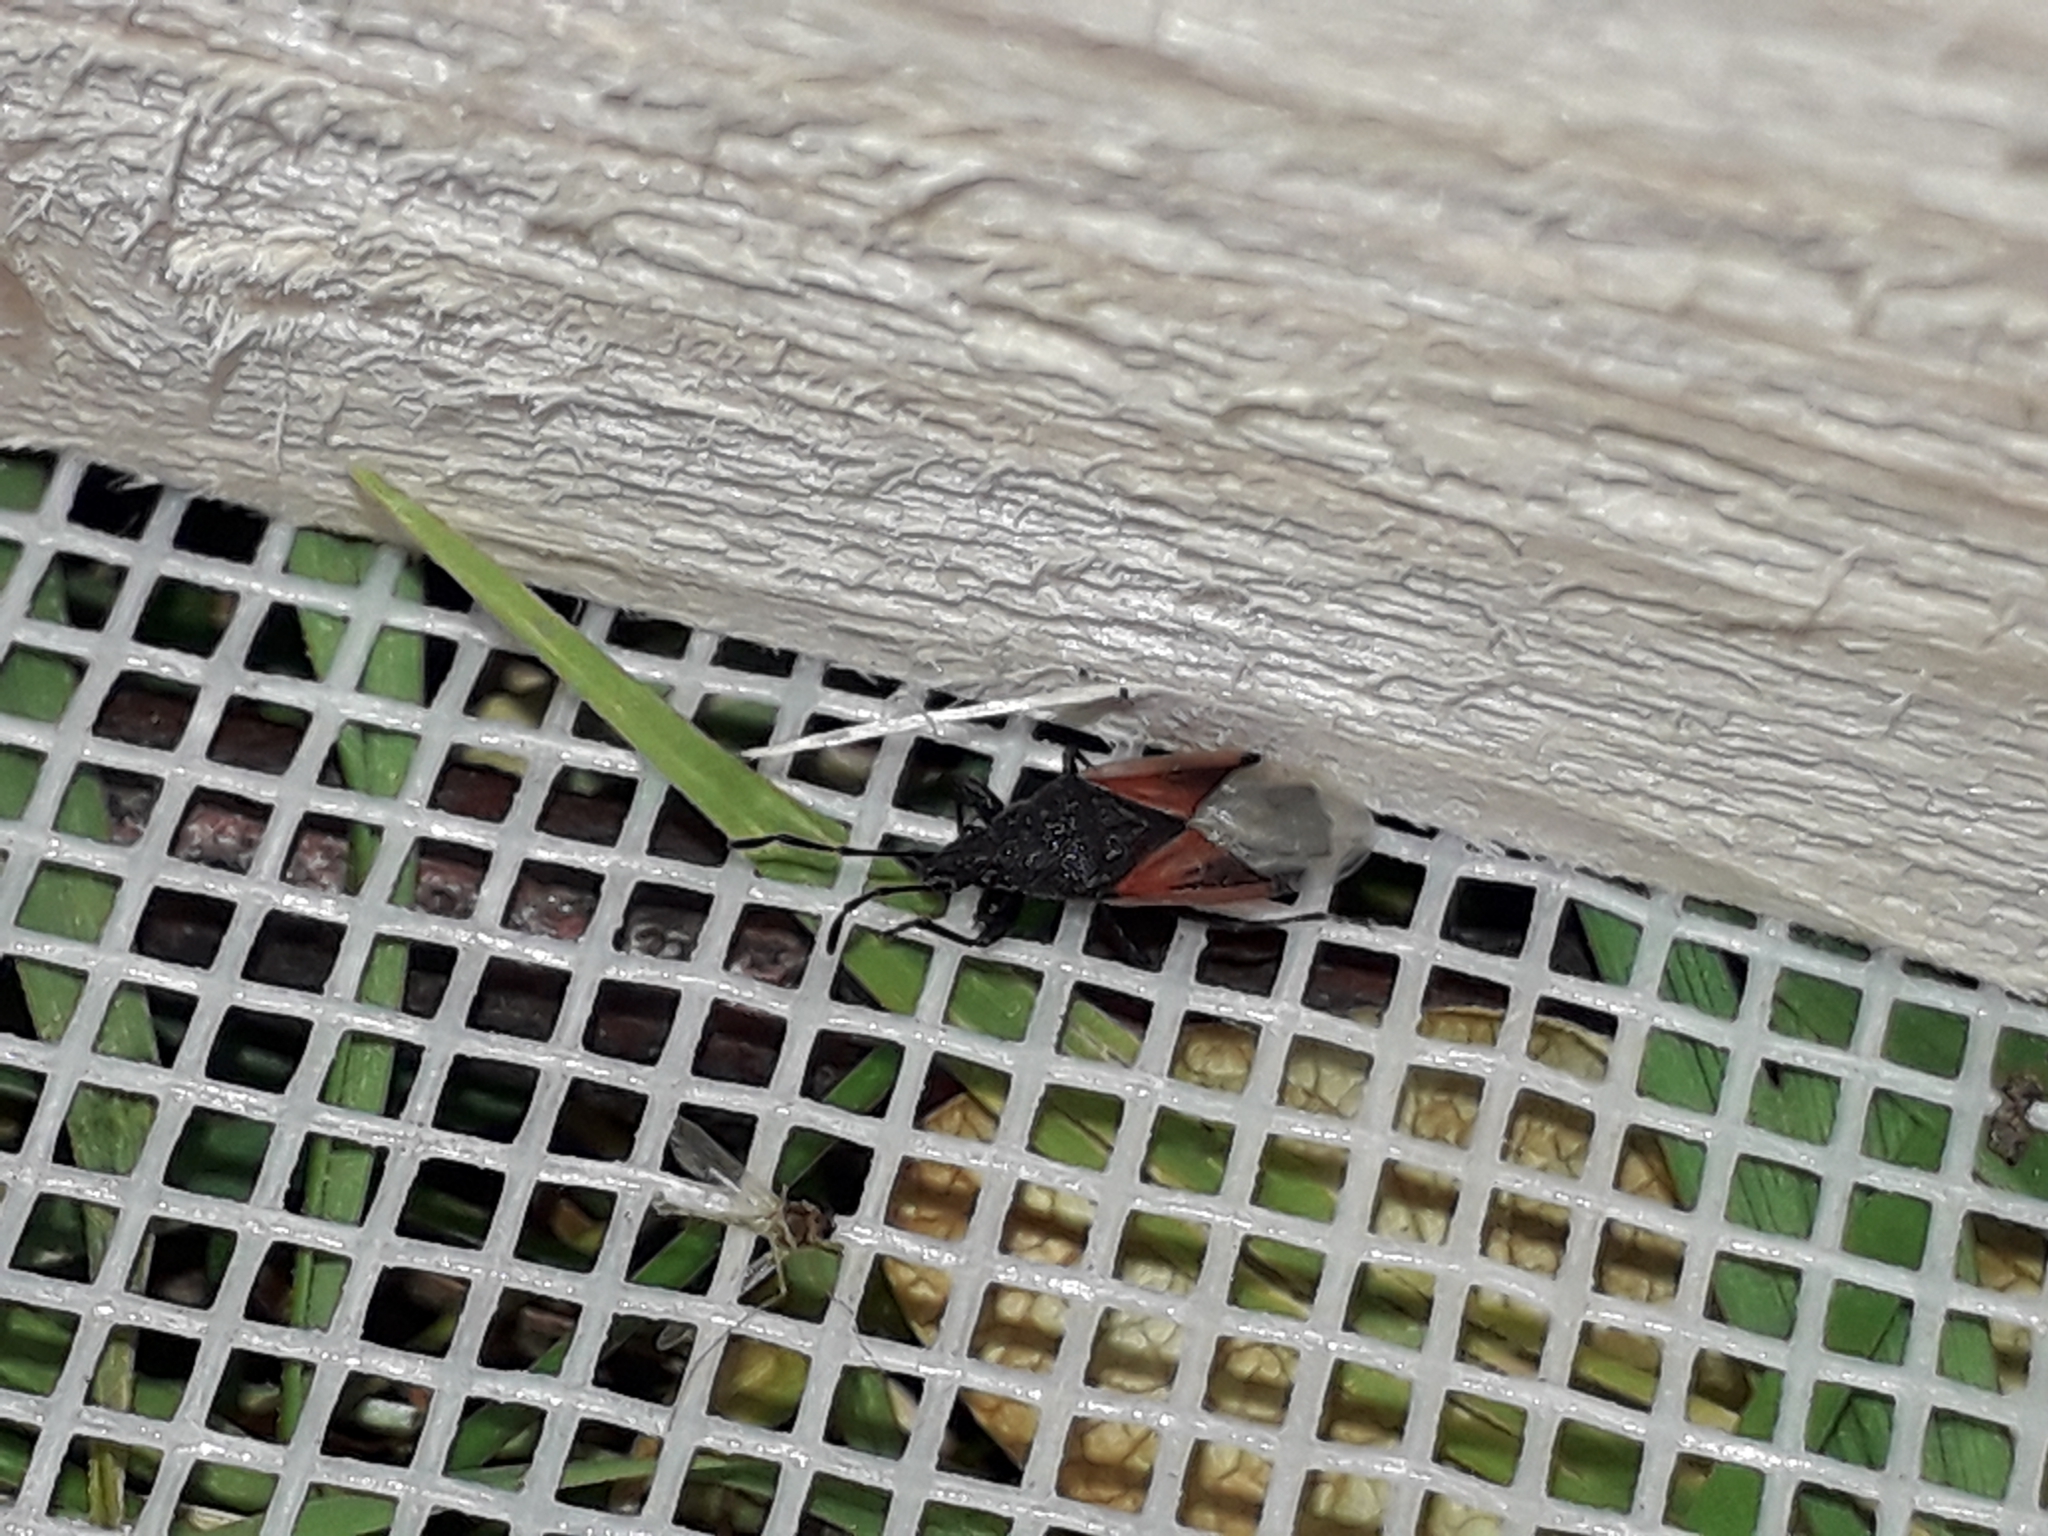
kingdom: Animalia
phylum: Arthropoda
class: Insecta
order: Hemiptera
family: Oxycarenidae
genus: Oxycarenus
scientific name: Oxycarenus lavaterae
